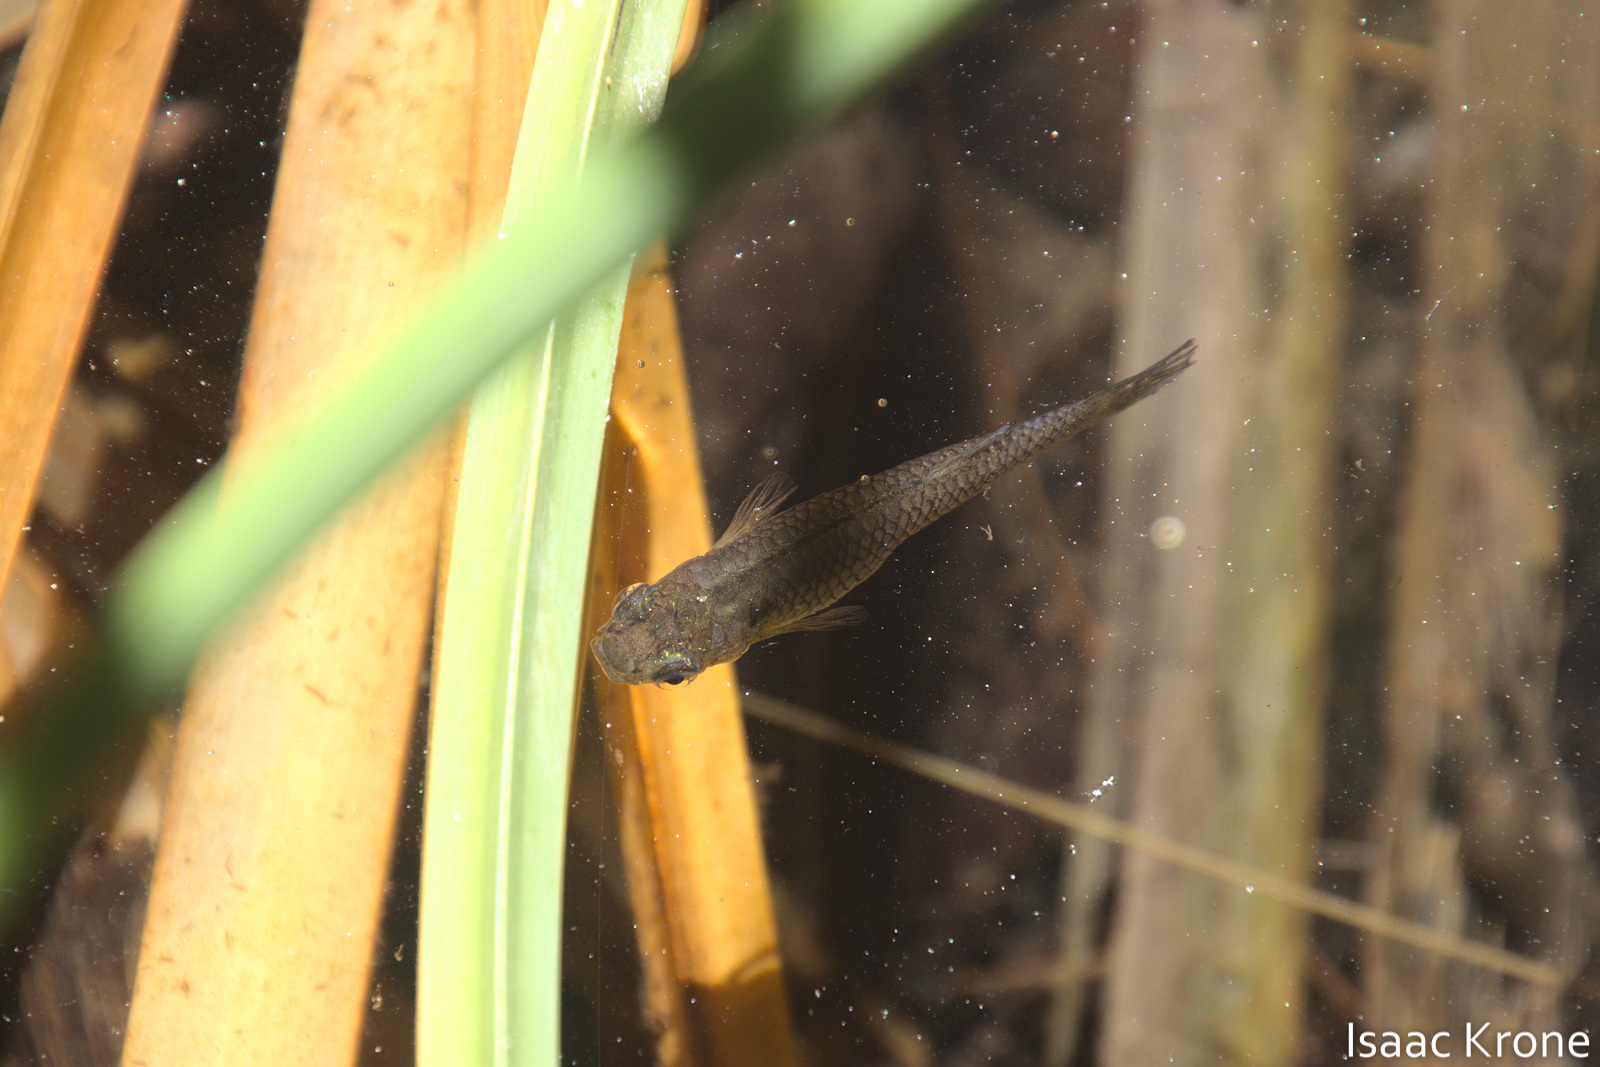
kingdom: Animalia
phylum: Chordata
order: Cyprinodontiformes
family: Poeciliidae
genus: Gambusia
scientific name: Gambusia affinis
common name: Mosquitofish
